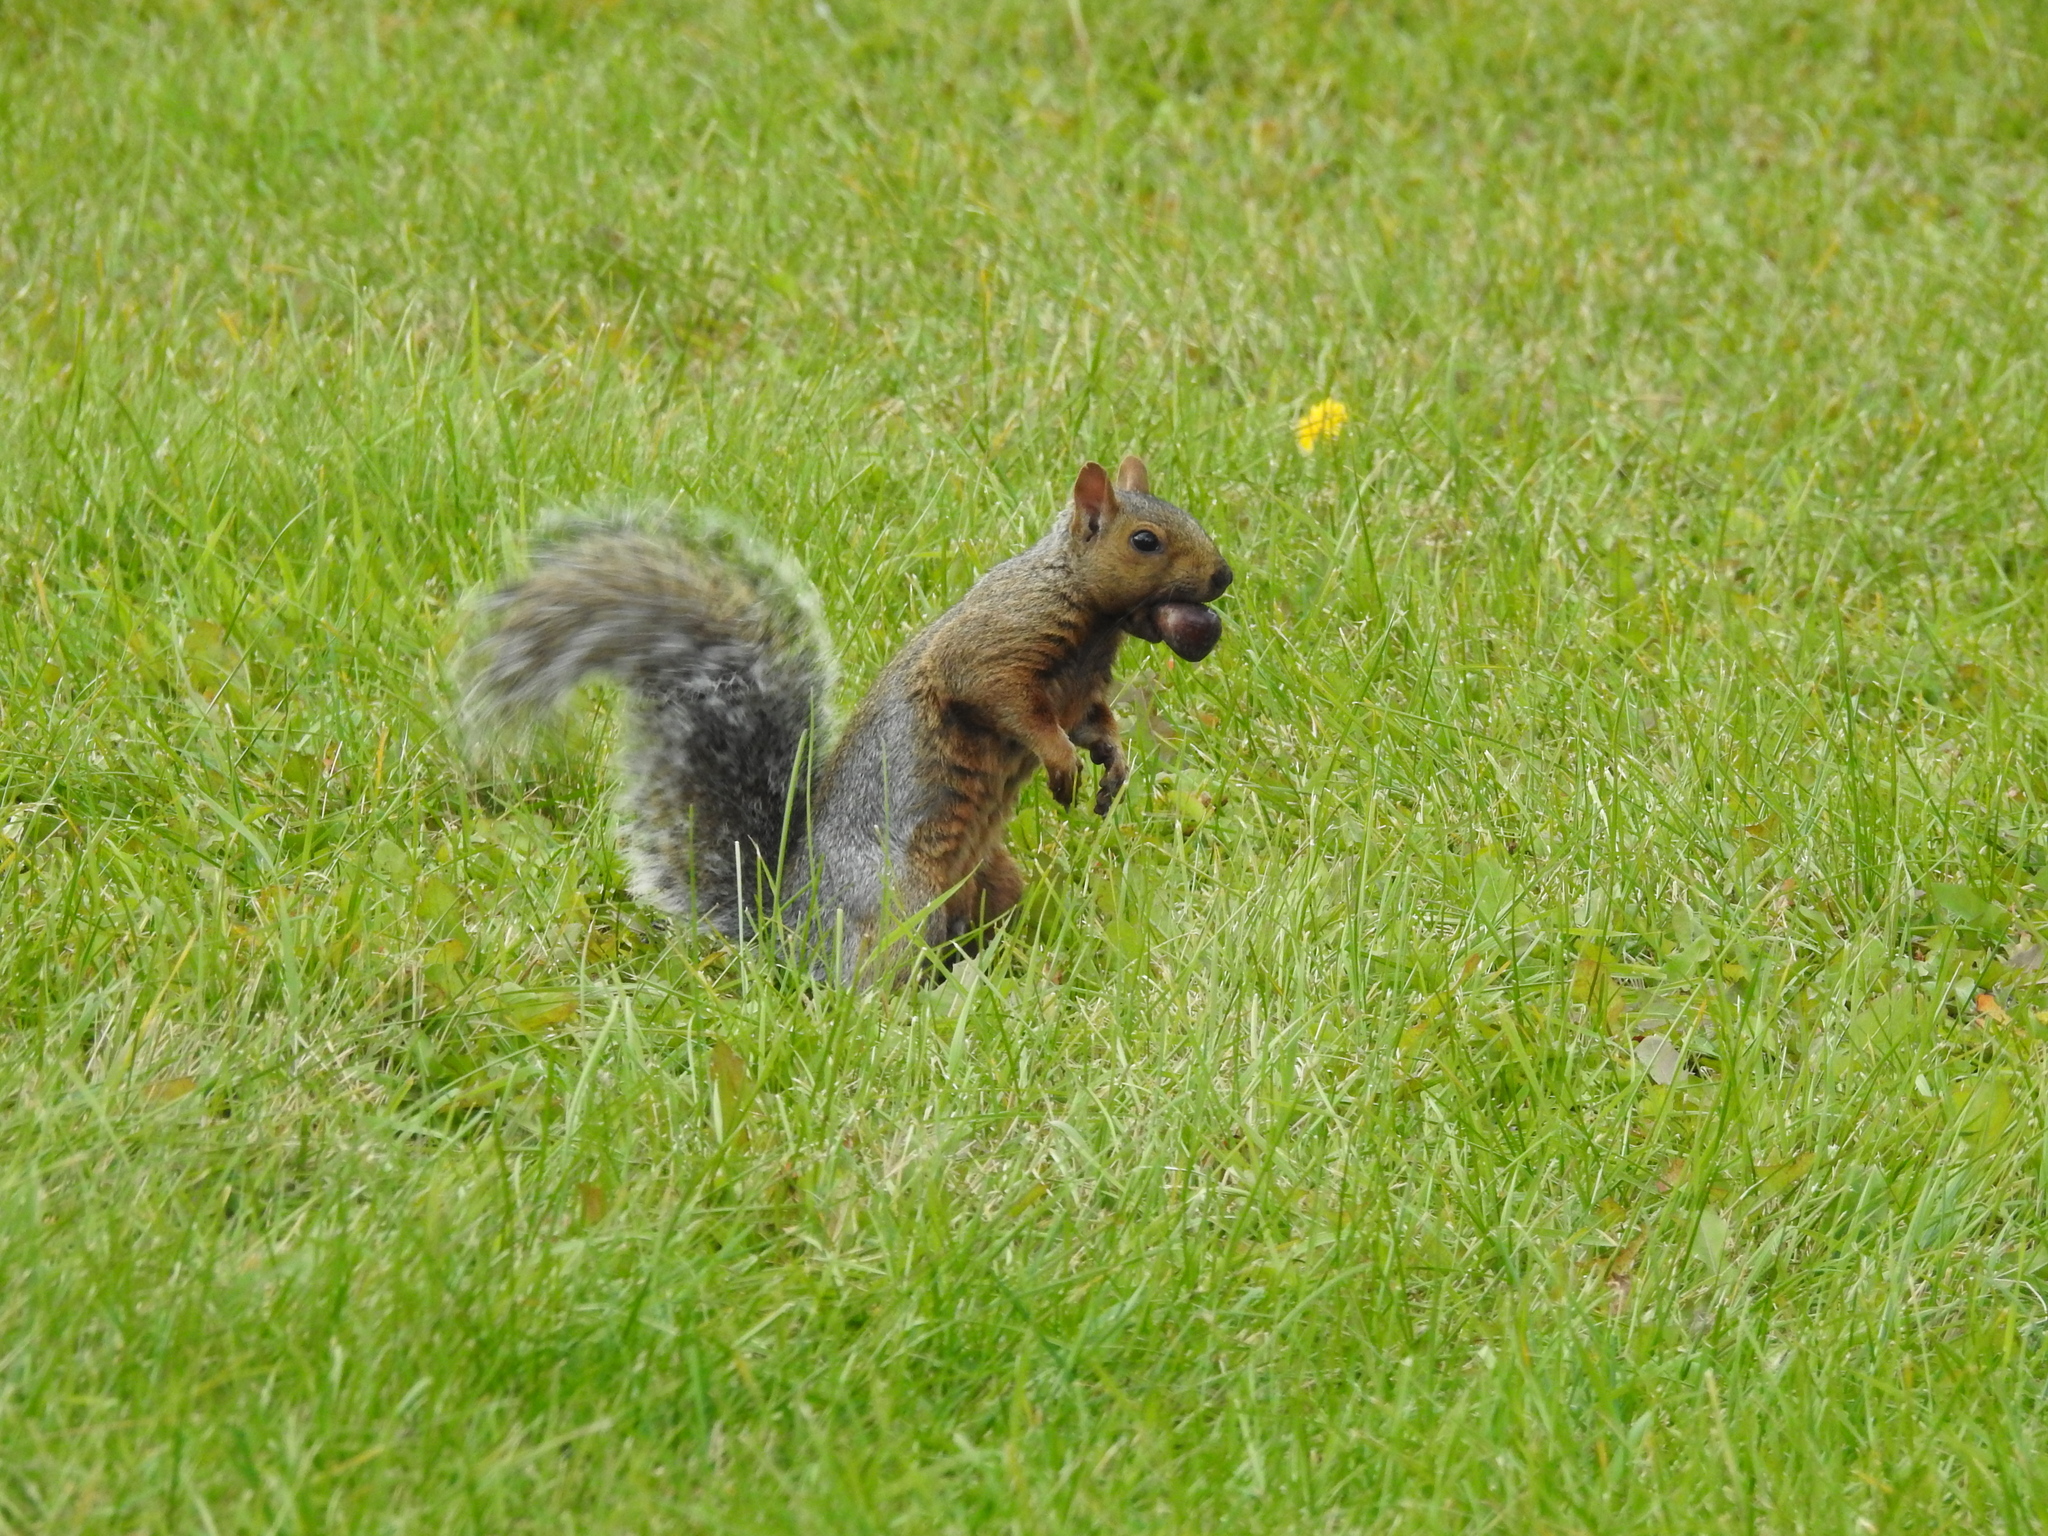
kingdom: Animalia
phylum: Chordata
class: Mammalia
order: Rodentia
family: Sciuridae
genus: Sciurus
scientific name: Sciurus carolinensis
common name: Eastern gray squirrel
